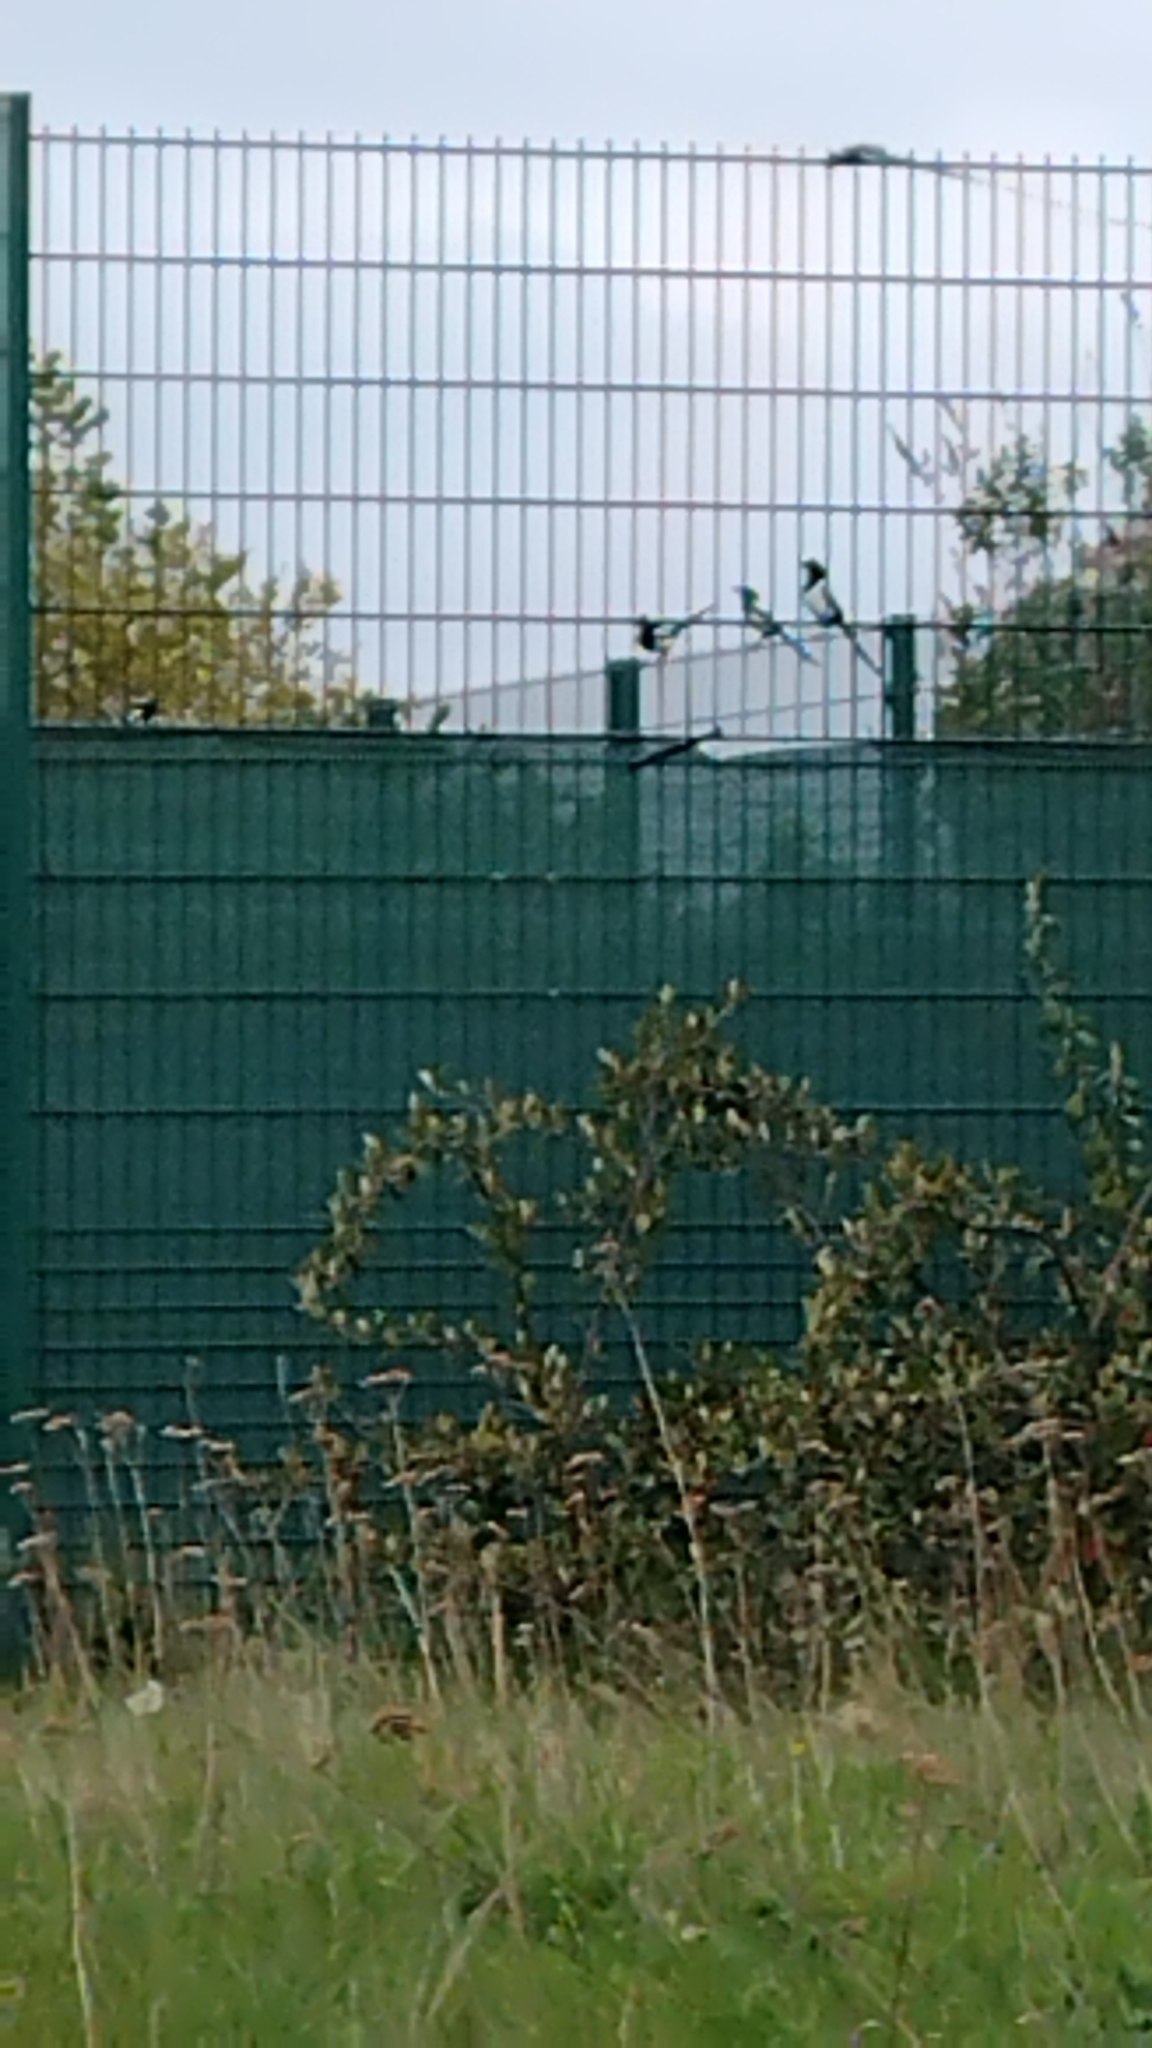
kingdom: Animalia
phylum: Chordata
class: Aves
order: Passeriformes
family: Corvidae
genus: Pica
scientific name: Pica pica
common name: Eurasian magpie
